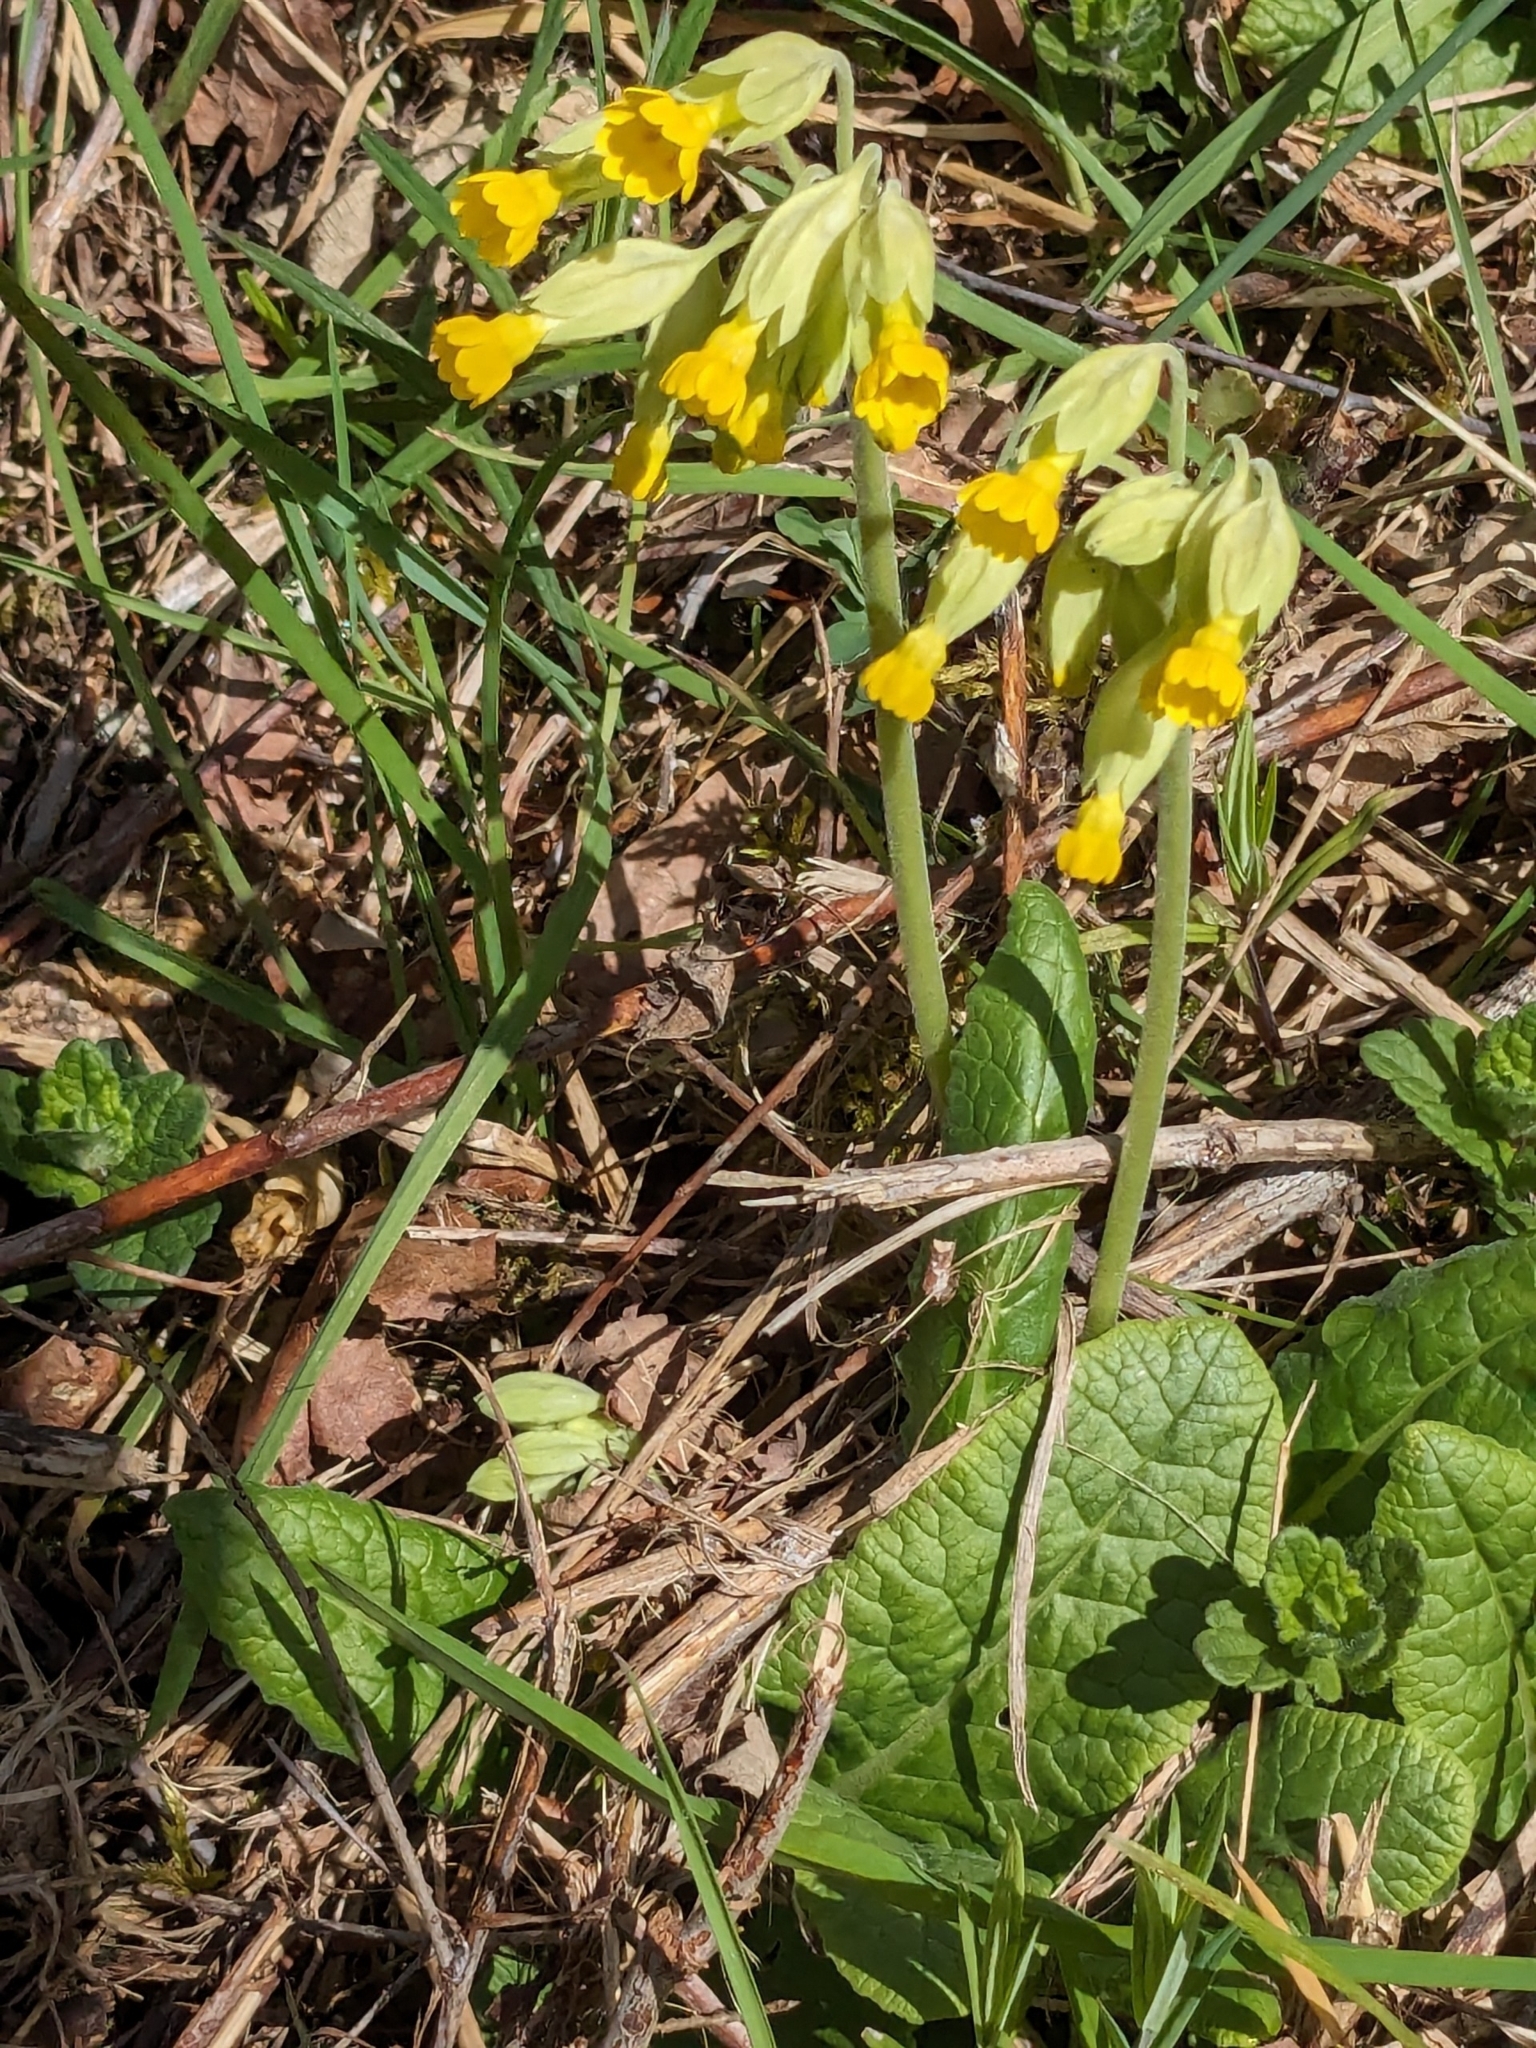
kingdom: Plantae
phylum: Tracheophyta
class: Magnoliopsida
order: Ericales
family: Primulaceae
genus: Primula
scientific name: Primula veris
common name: Cowslip
